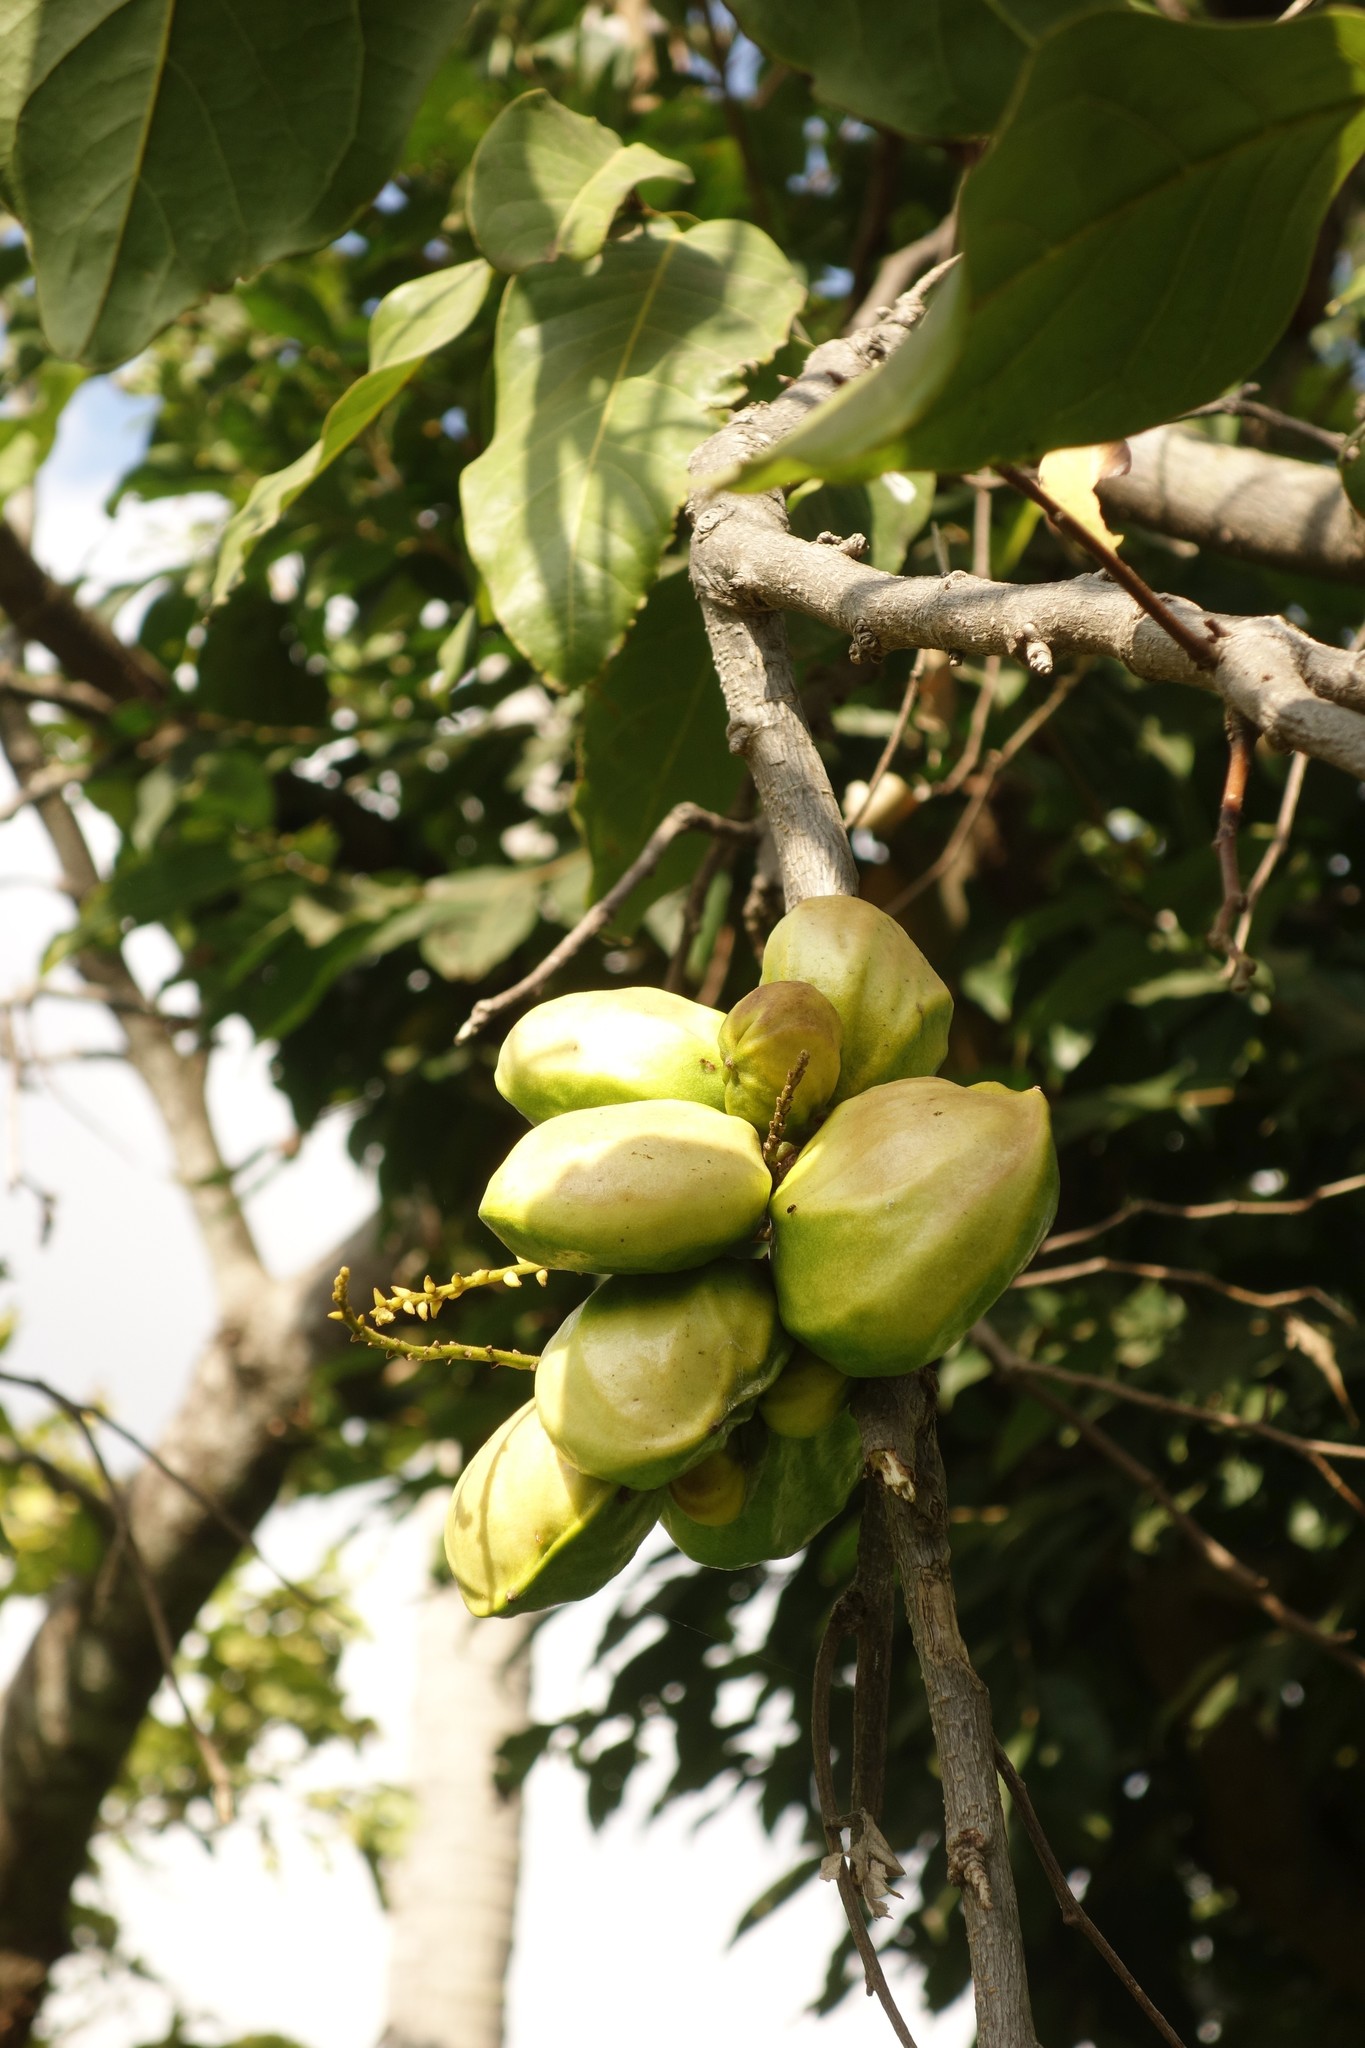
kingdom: Plantae
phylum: Tracheophyta
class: Magnoliopsida
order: Fabales
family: Fabaceae
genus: Inocarpus
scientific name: Inocarpus fagifer
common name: Polynesian chestnut
